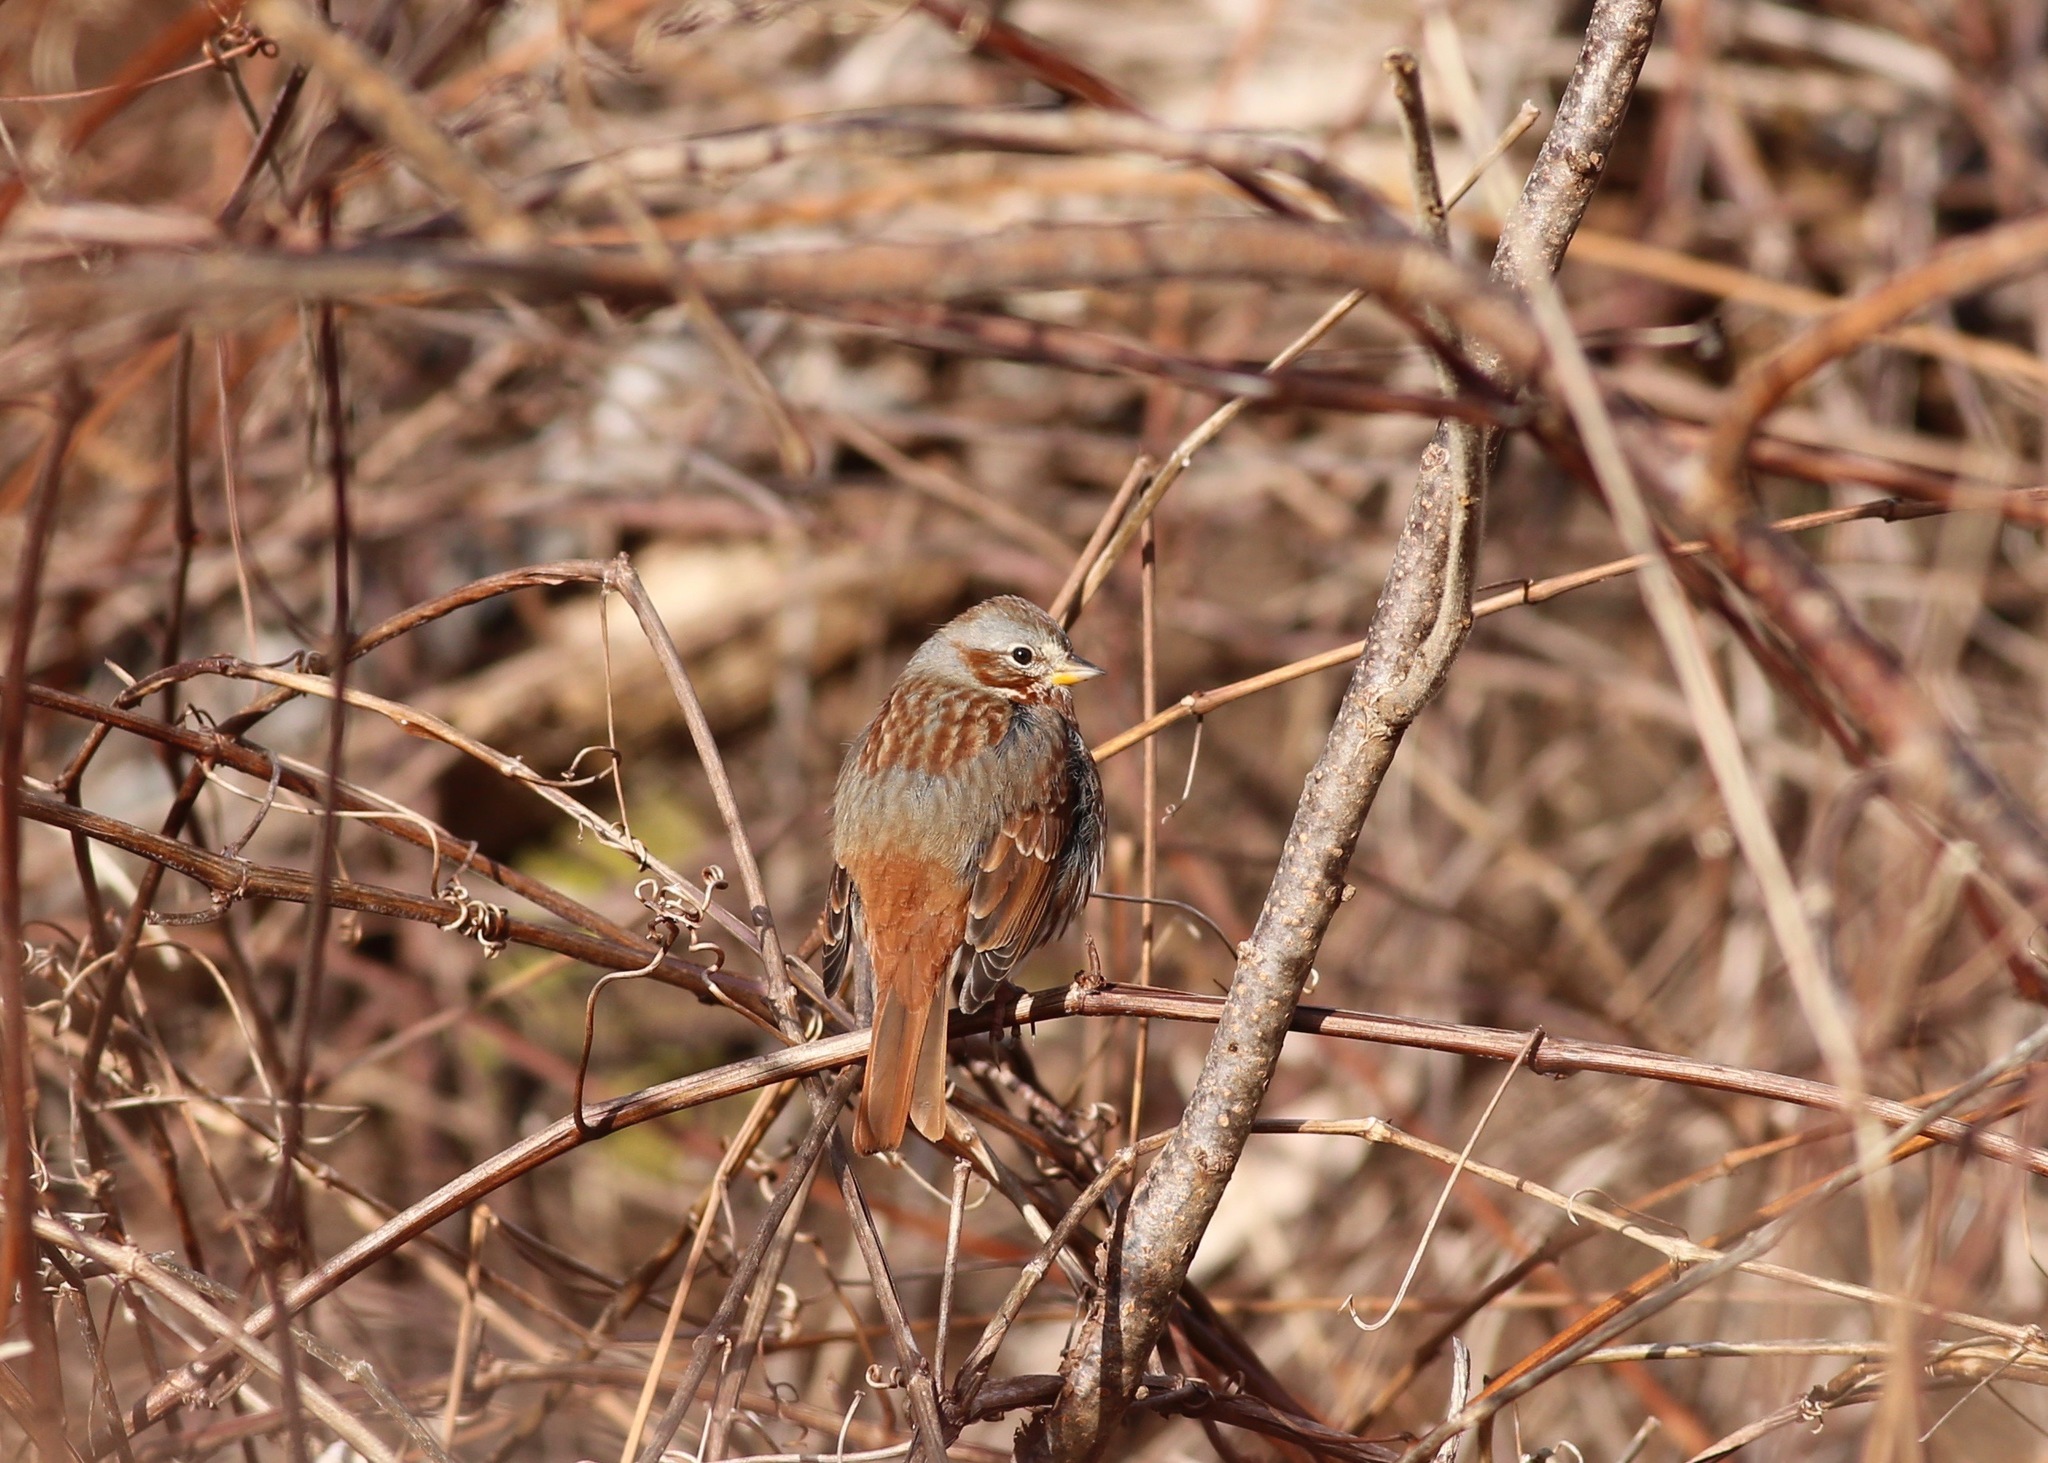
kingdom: Animalia
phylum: Chordata
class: Aves
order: Passeriformes
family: Passerellidae
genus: Passerella
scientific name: Passerella iliaca
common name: Fox sparrow
